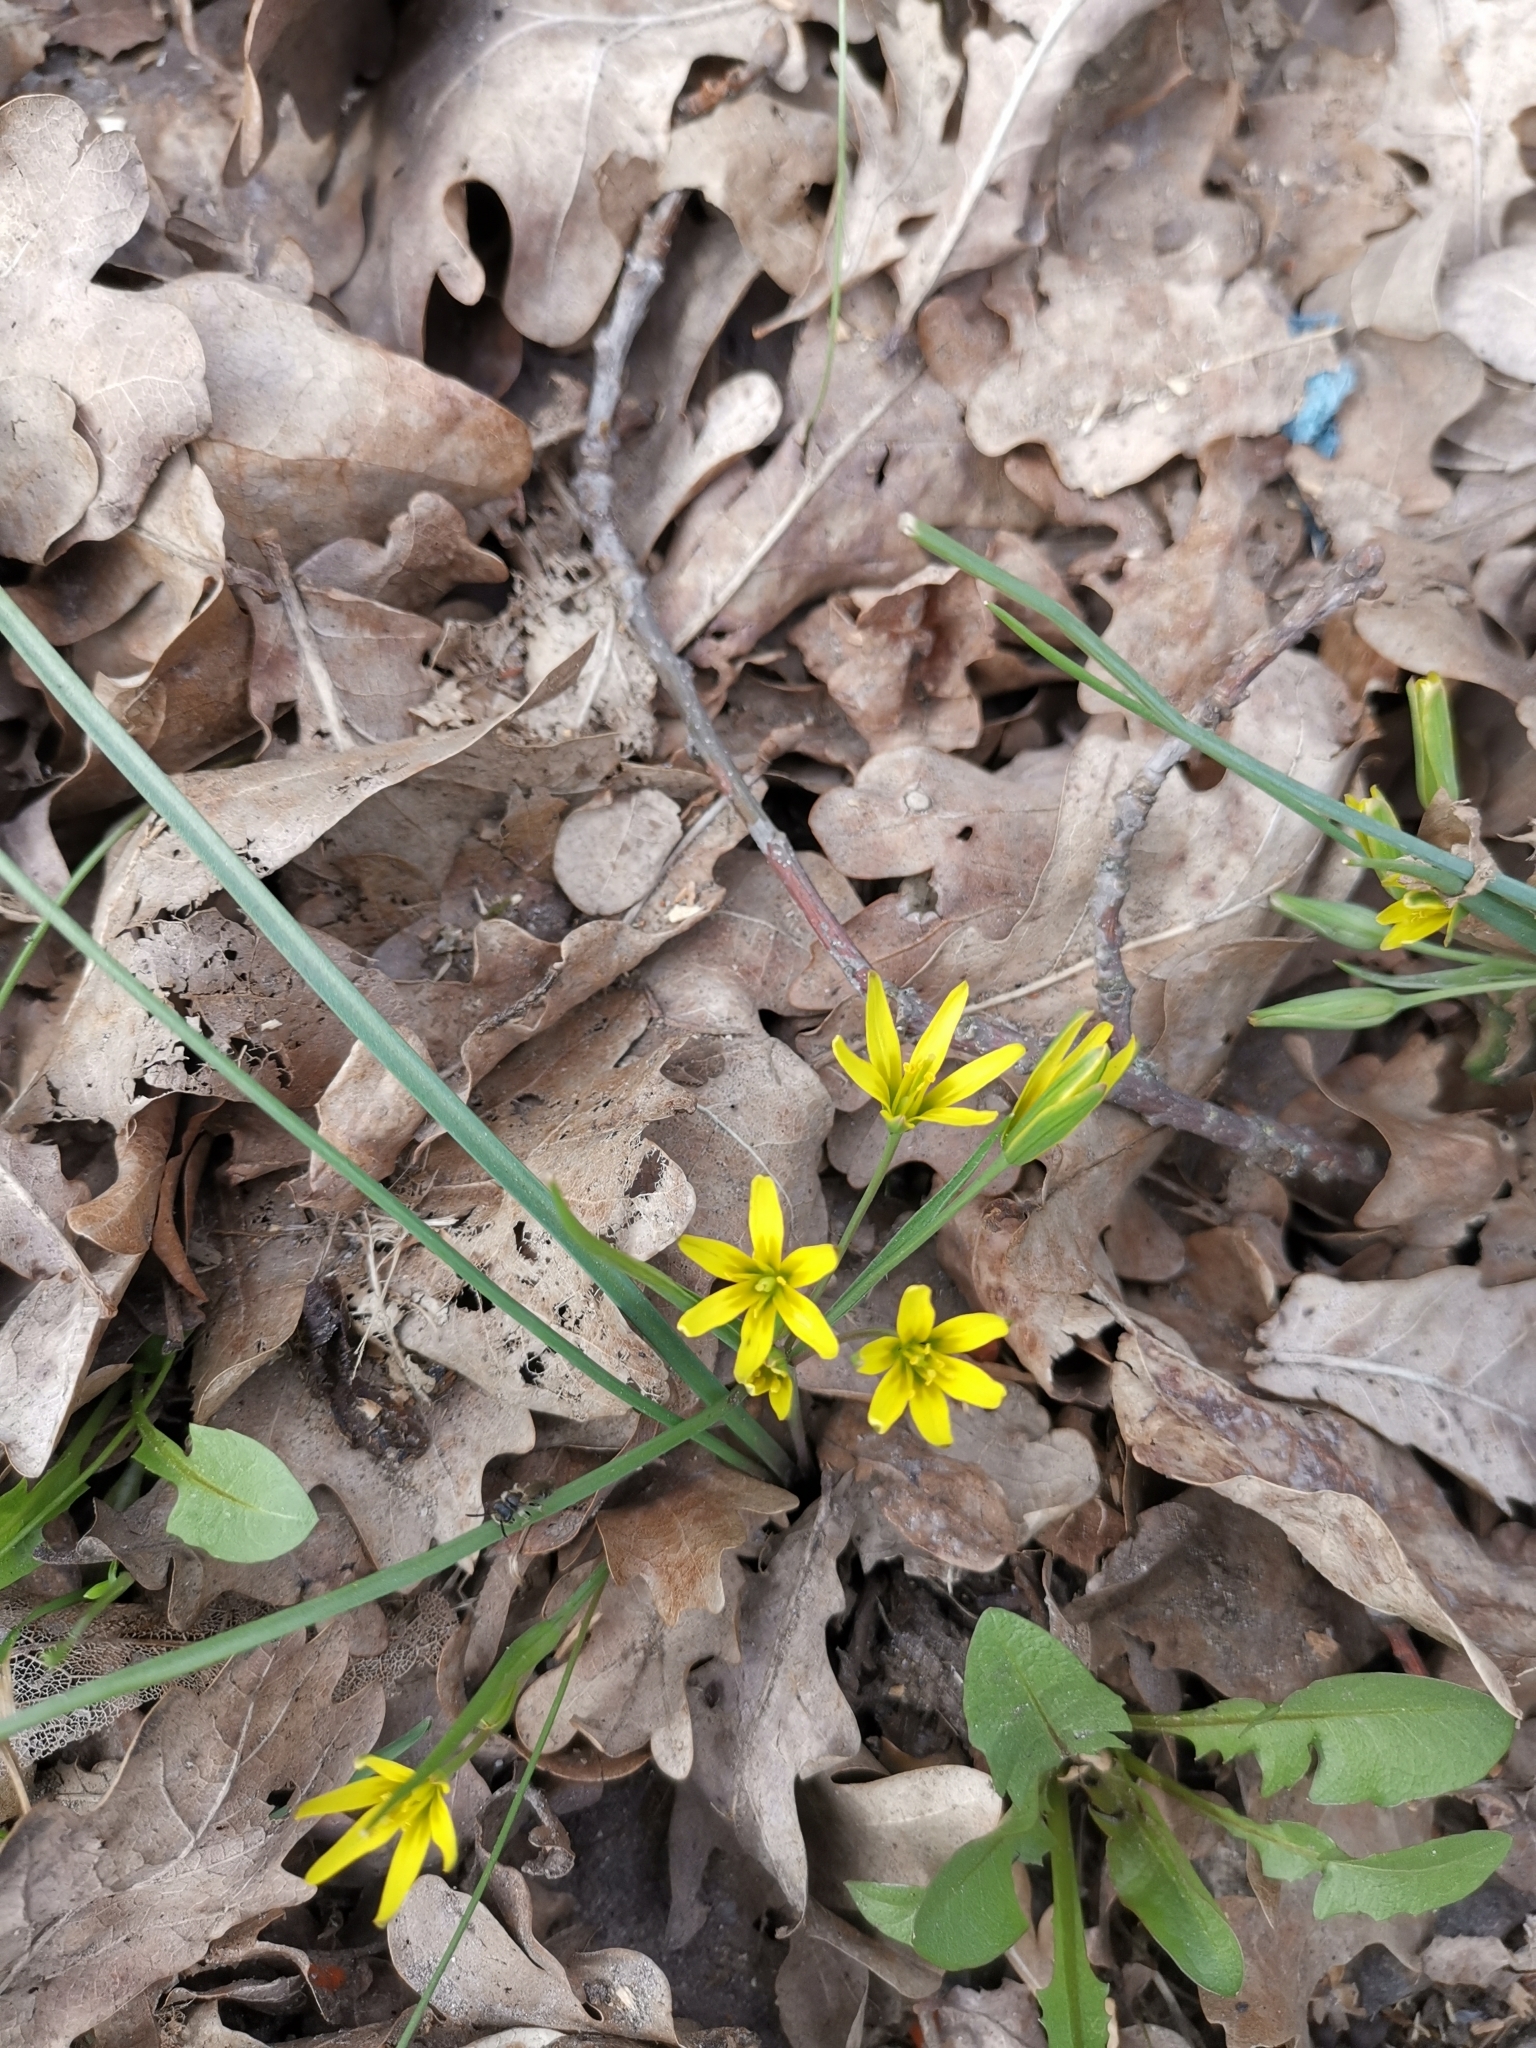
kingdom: Plantae
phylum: Tracheophyta
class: Liliopsida
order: Liliales
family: Liliaceae
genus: Gagea
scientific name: Gagea pusilla
